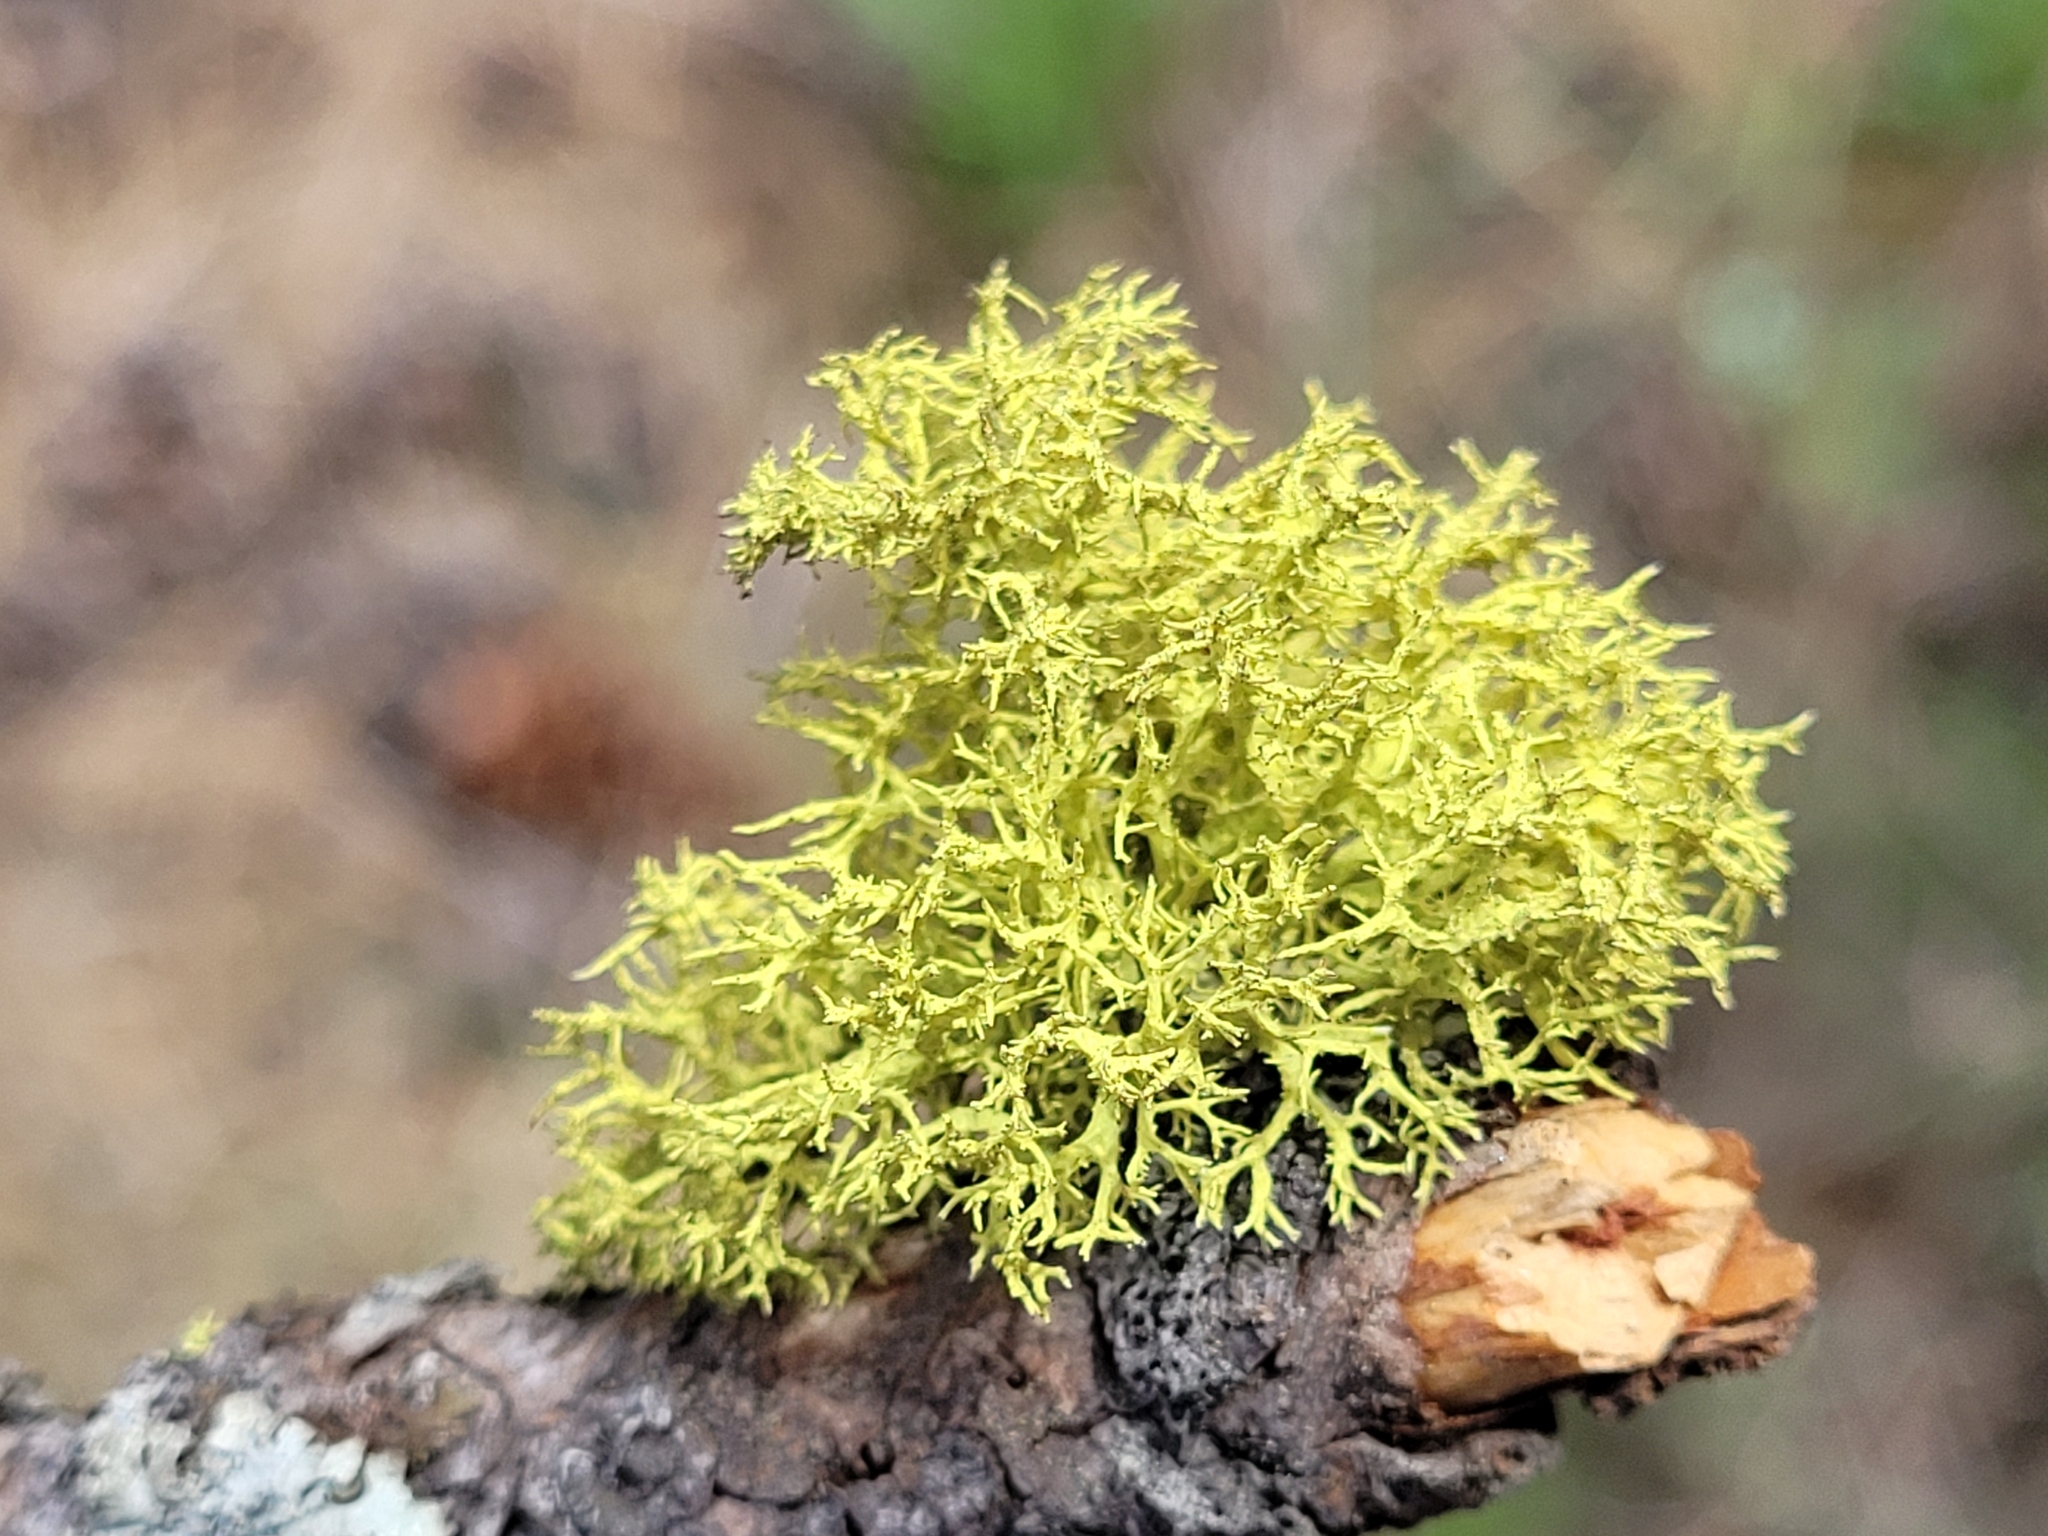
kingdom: Fungi
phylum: Ascomycota
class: Lecanoromycetes
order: Lecanorales
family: Parmeliaceae
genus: Letharia
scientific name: Letharia vulpina
